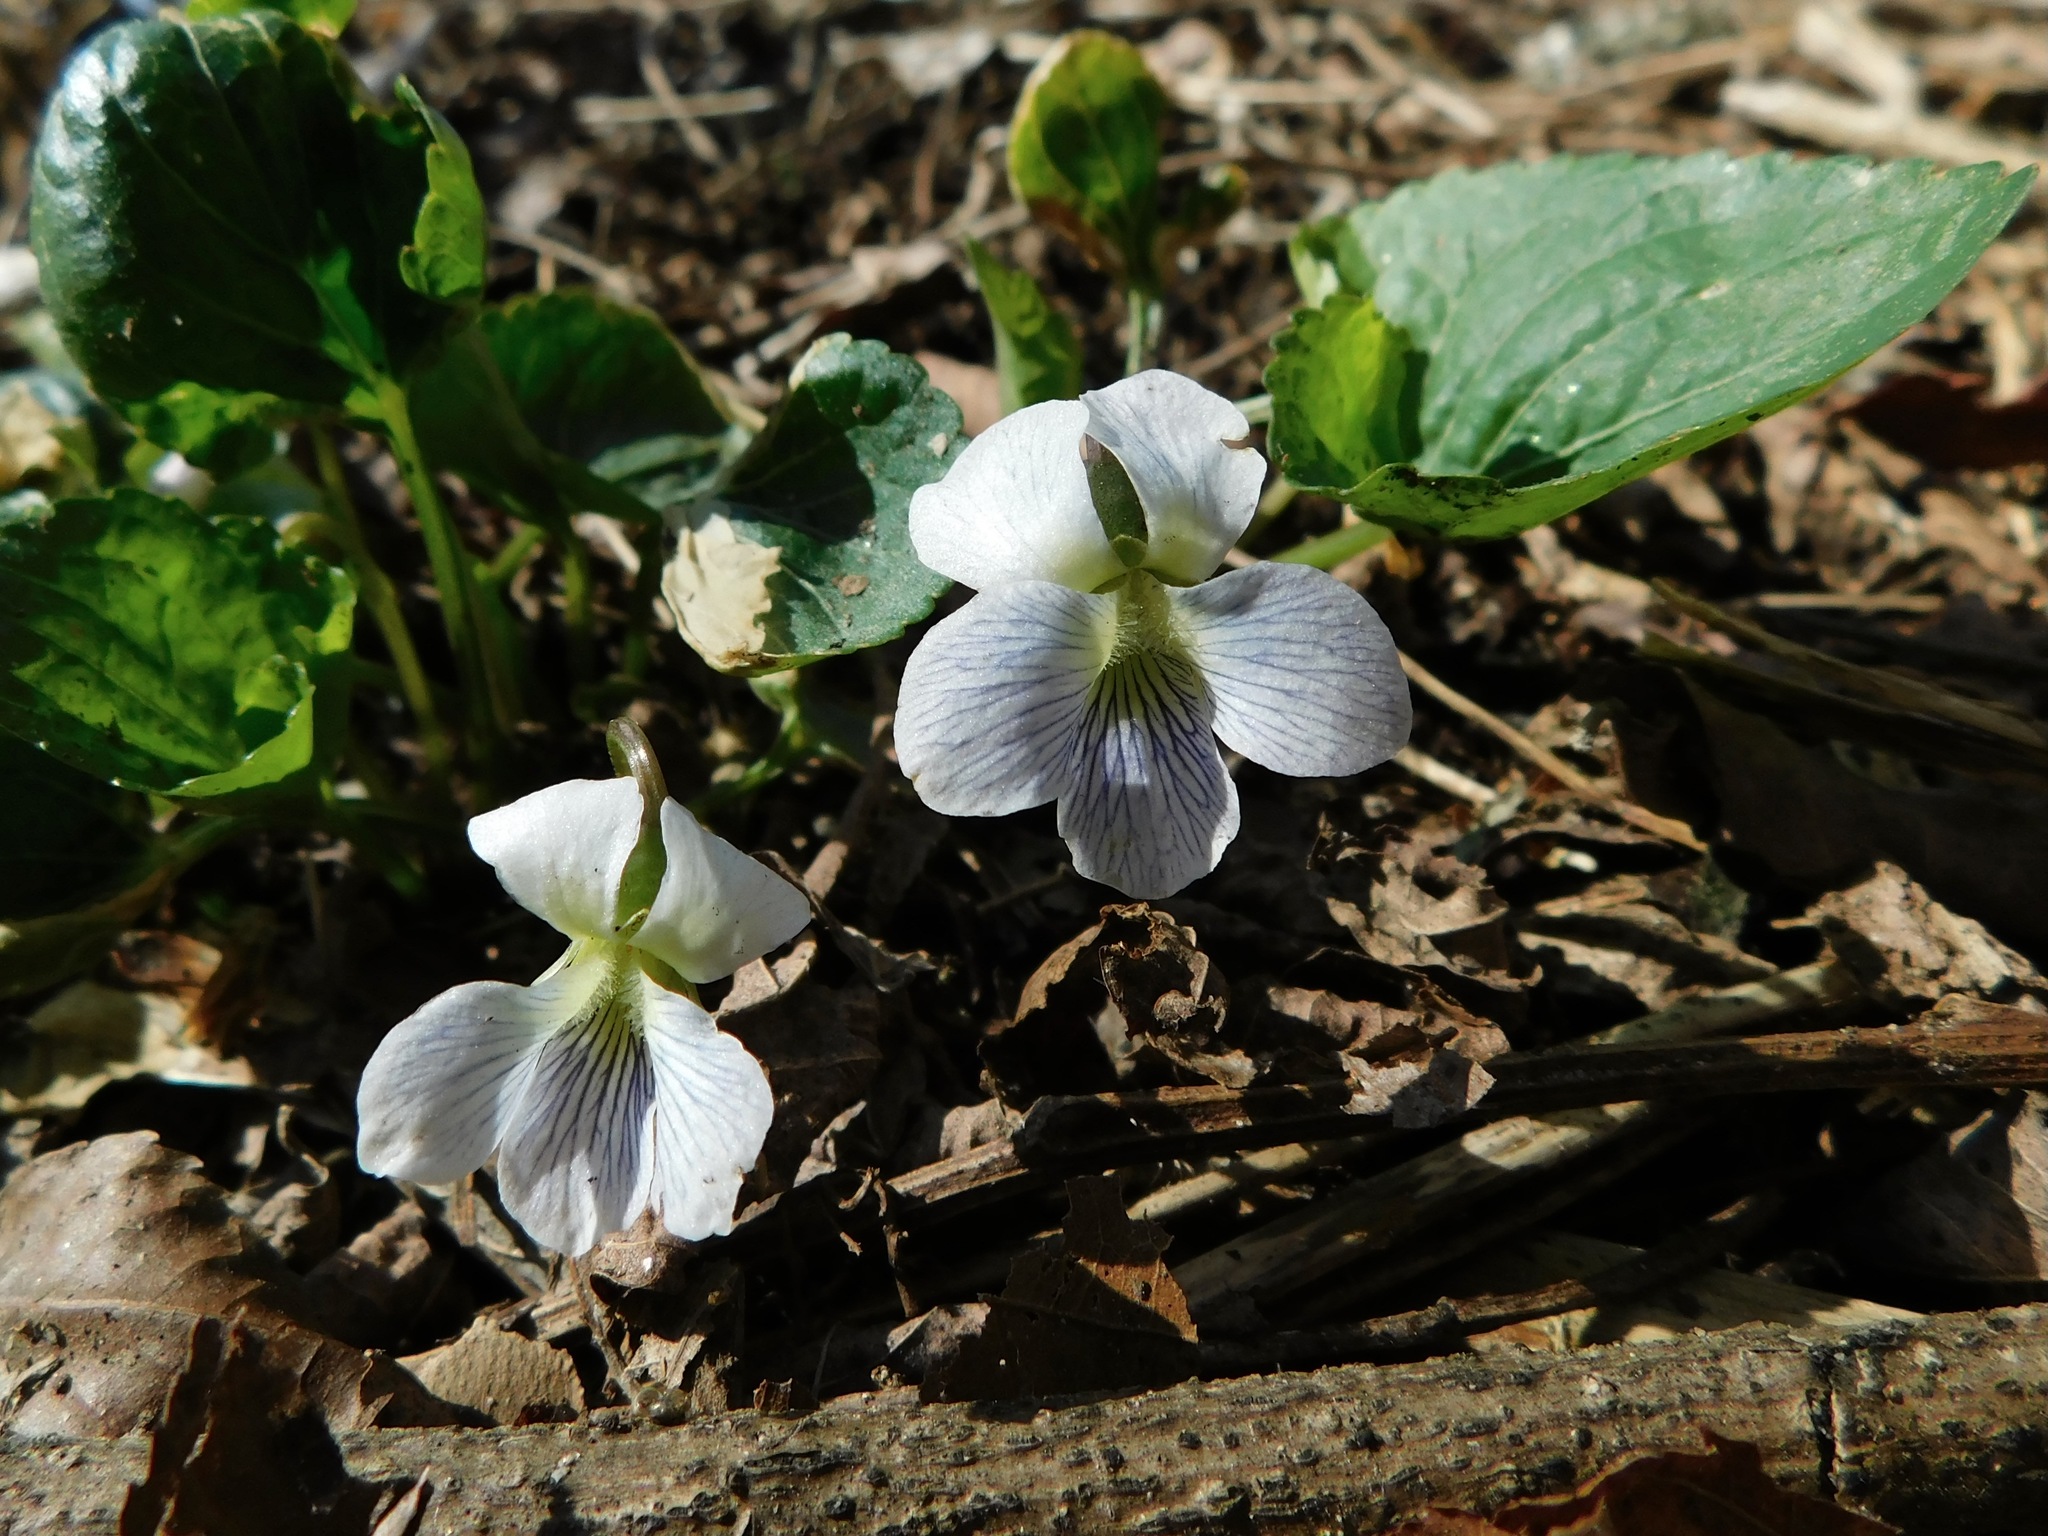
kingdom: Plantae
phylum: Tracheophyta
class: Magnoliopsida
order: Malpighiales
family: Violaceae
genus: Viola
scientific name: Viola sororia
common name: Dooryard violet
